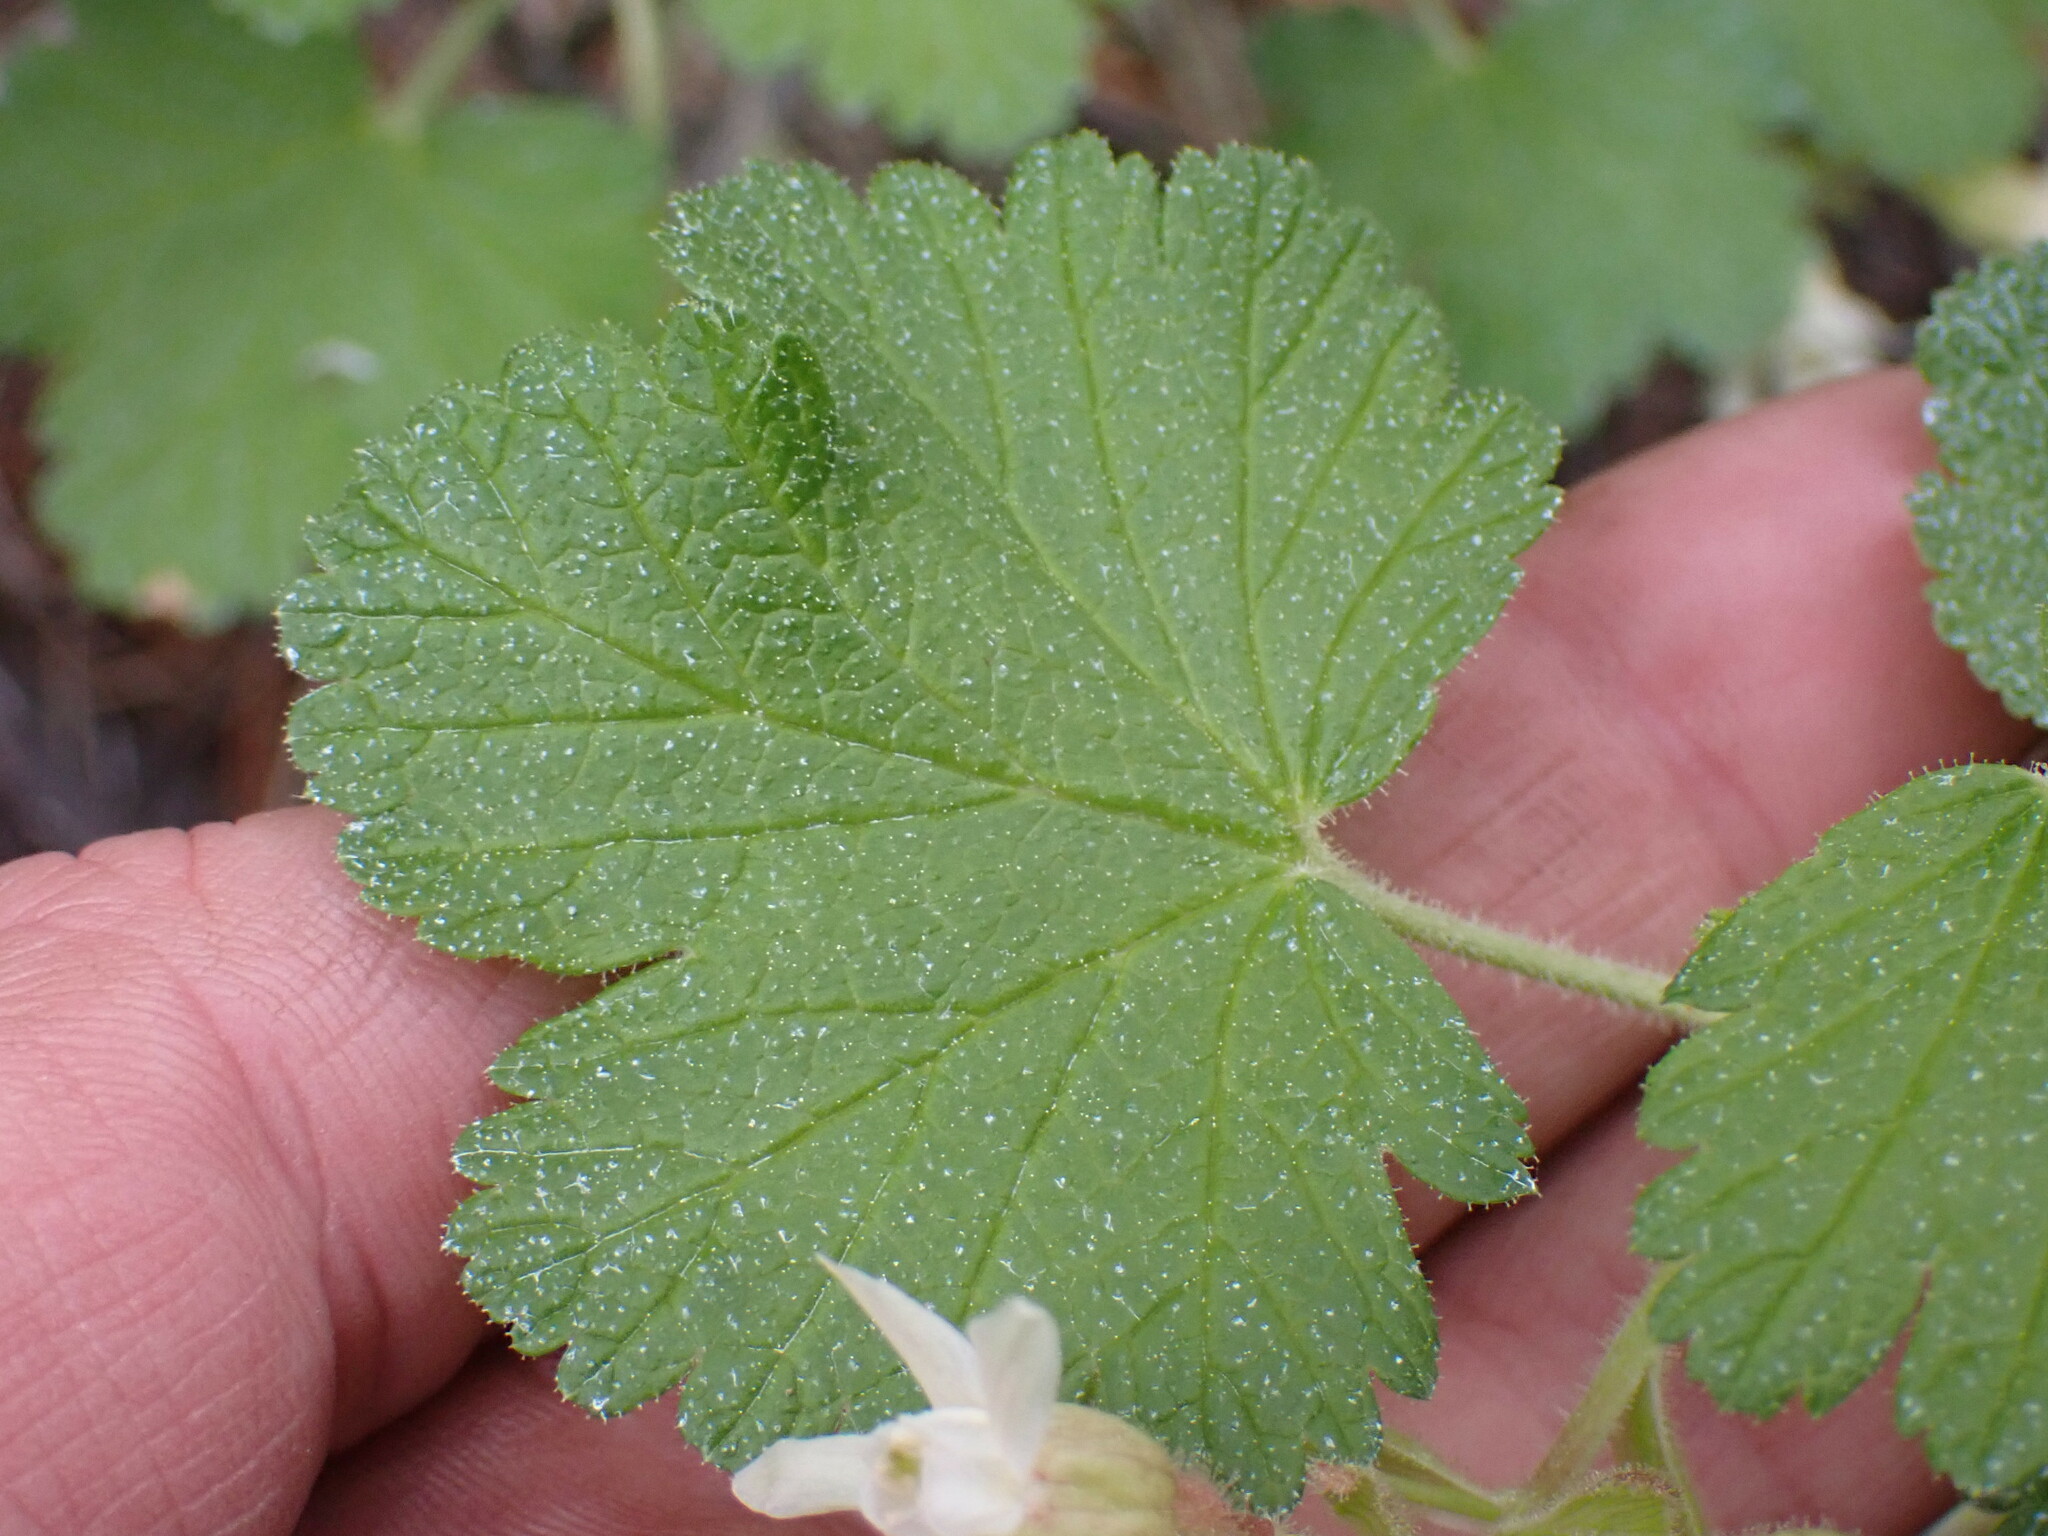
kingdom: Plantae
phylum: Tracheophyta
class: Magnoliopsida
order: Saxifragales
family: Grossulariaceae
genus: Ribes
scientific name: Ribes viscosissimum
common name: Sticky currant
